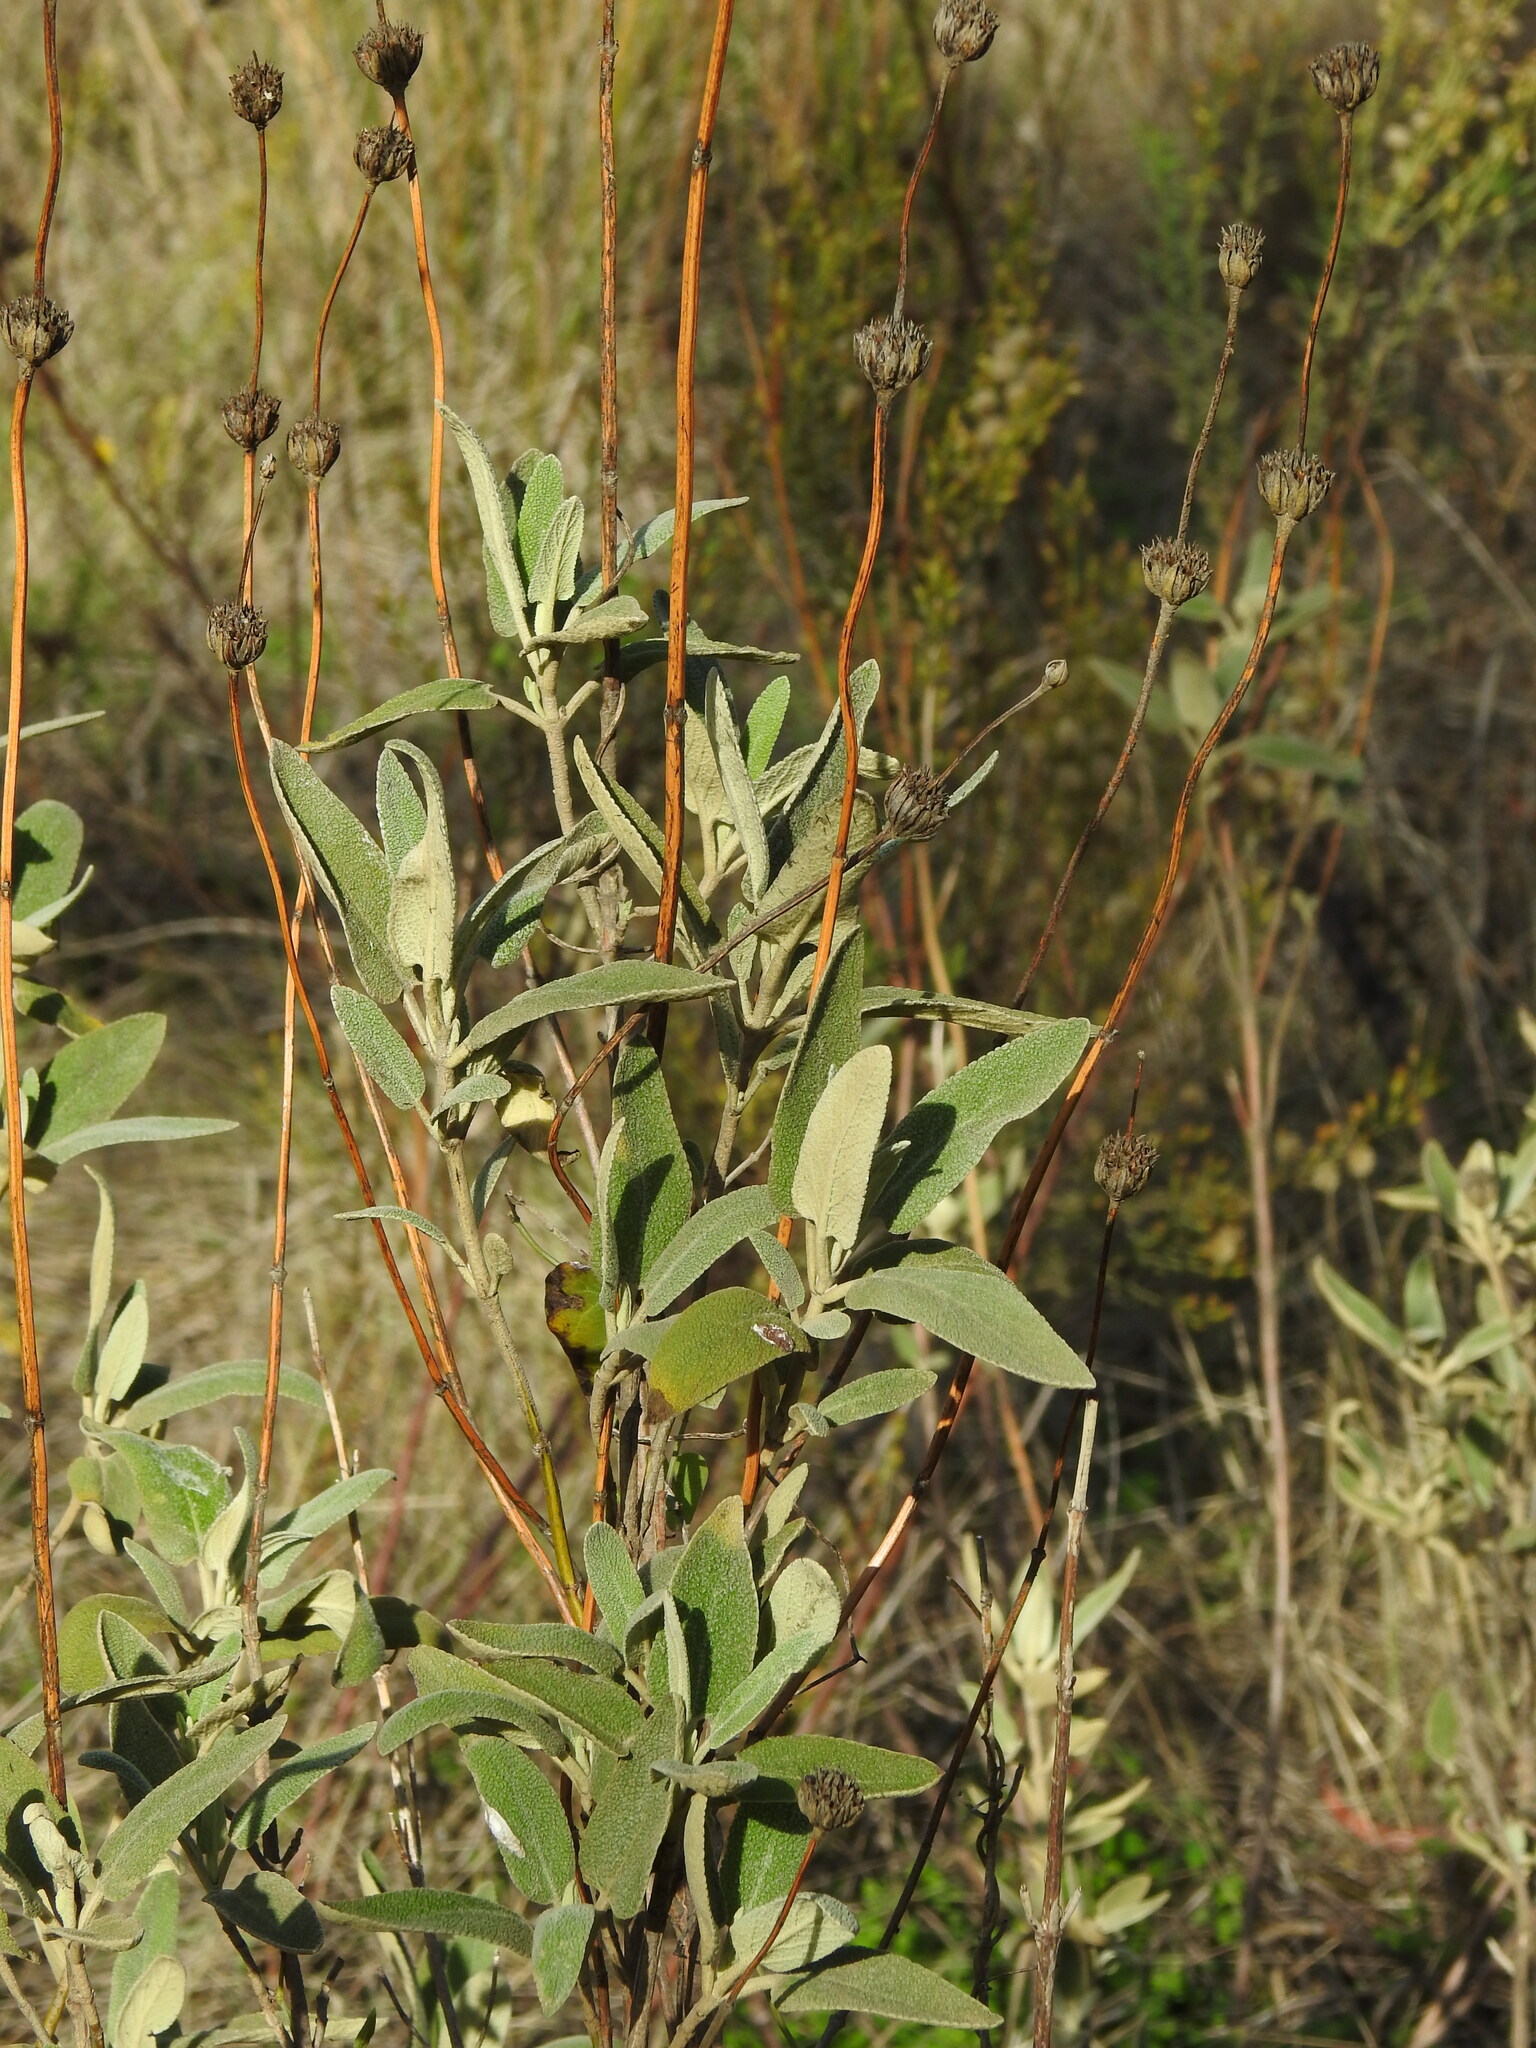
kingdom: Plantae
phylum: Tracheophyta
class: Magnoliopsida
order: Lamiales
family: Lamiaceae
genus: Phlomis
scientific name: Phlomis purpurea
